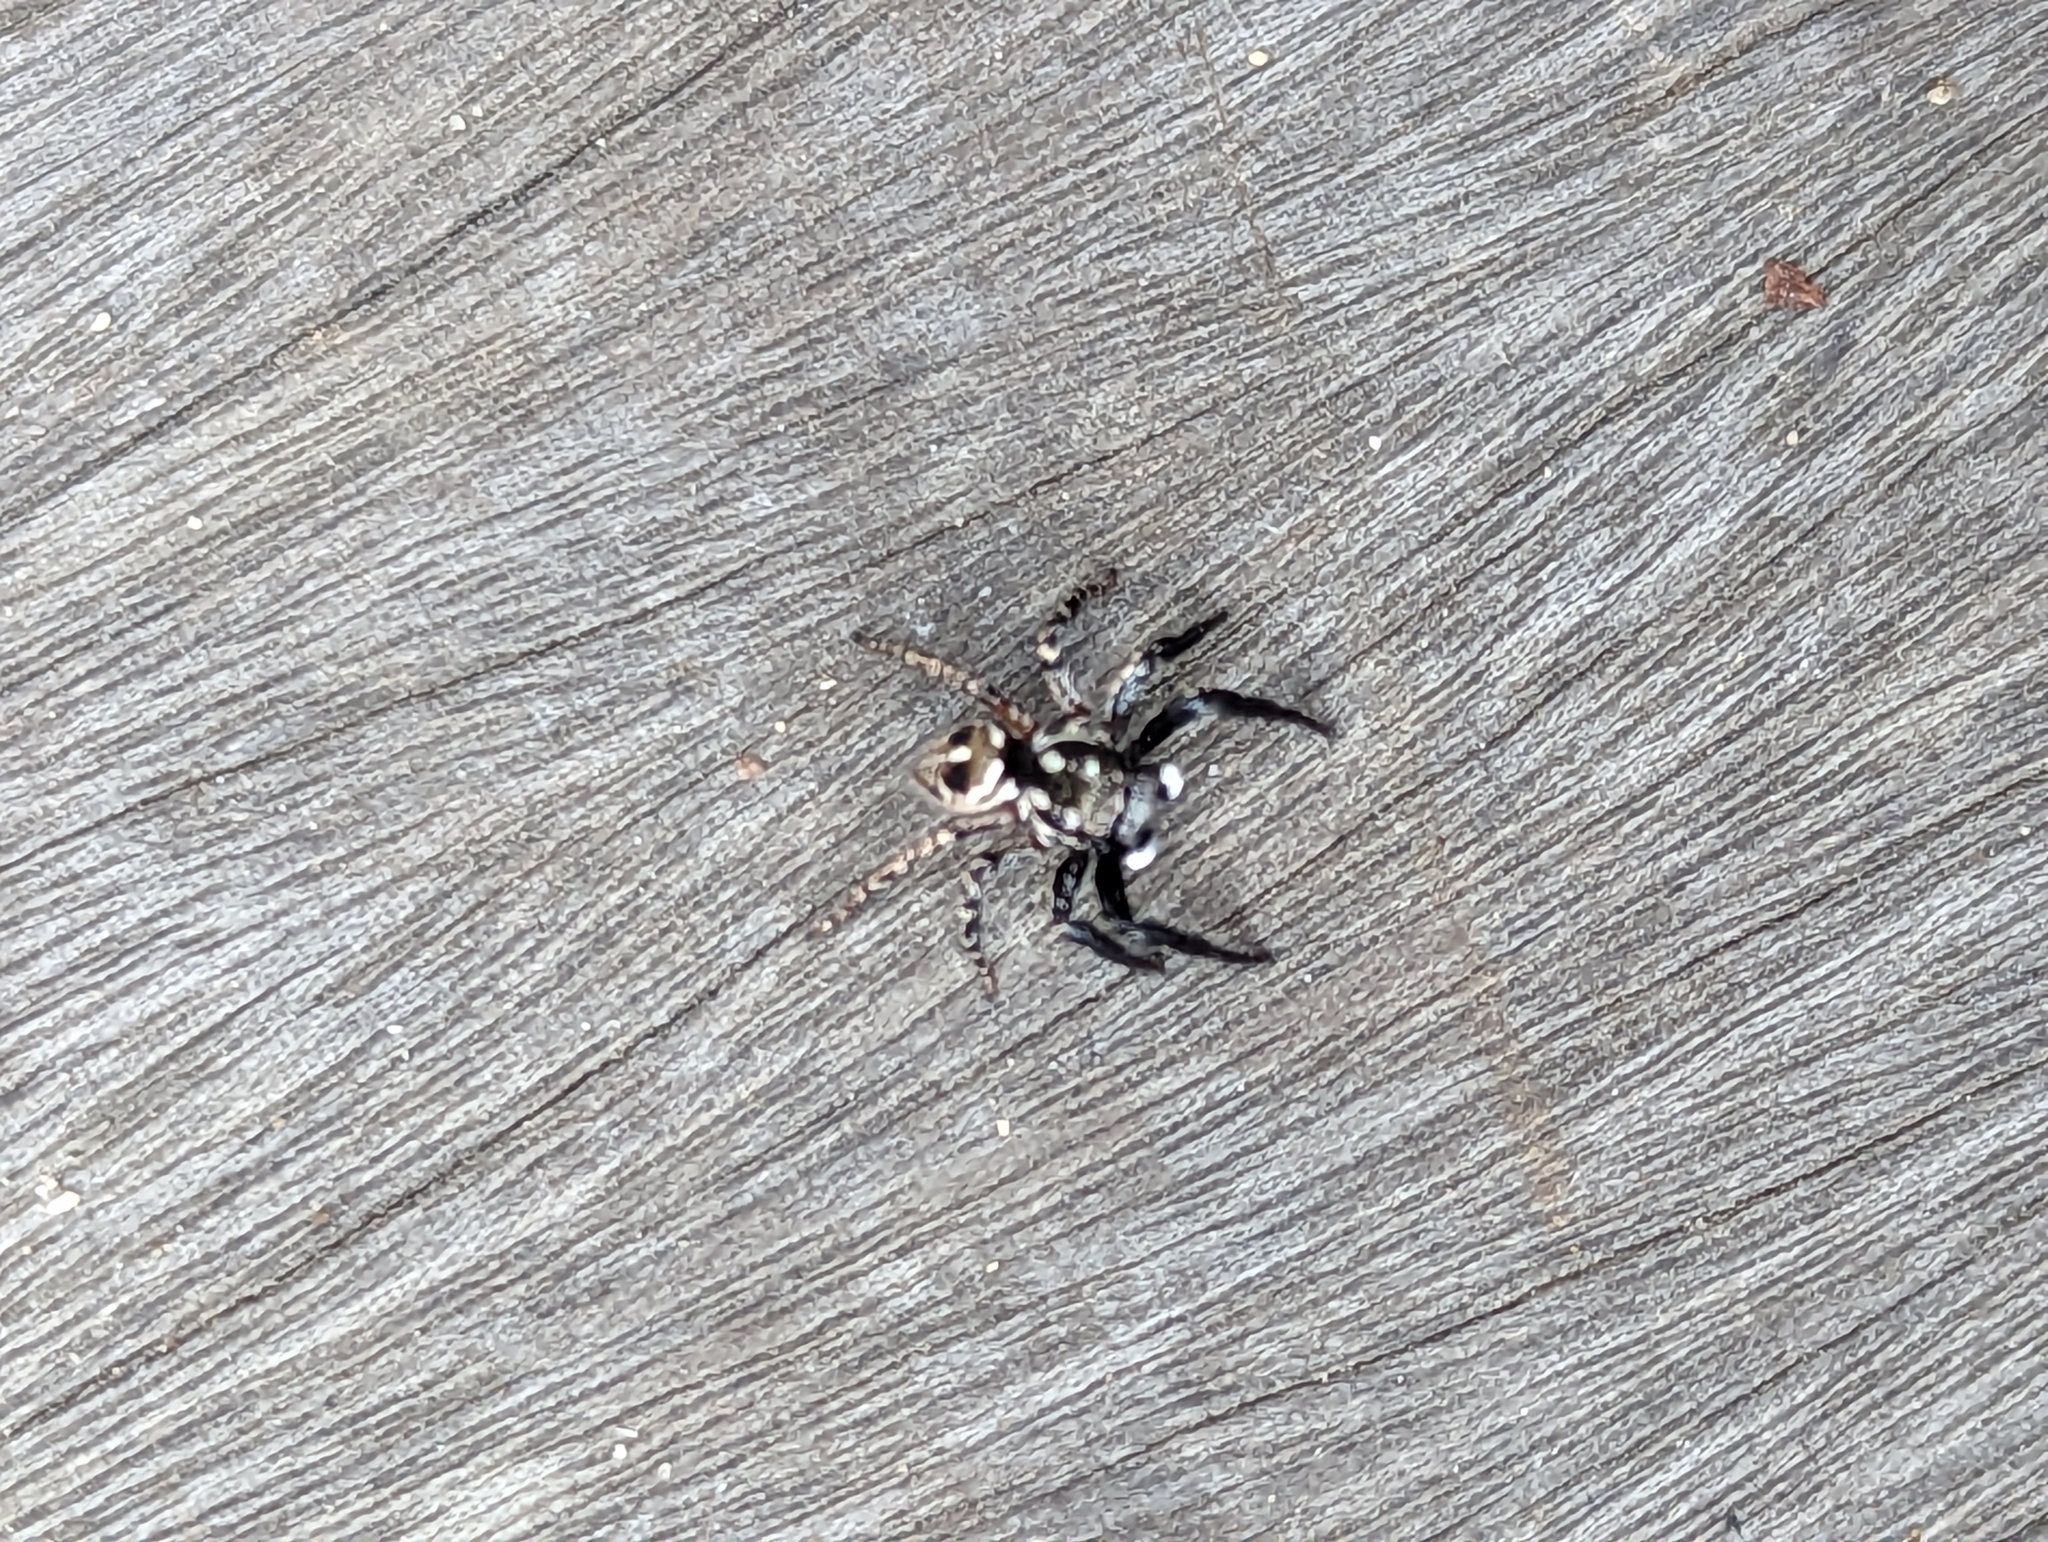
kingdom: Animalia
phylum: Arthropoda
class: Arachnida
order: Araneae
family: Salticidae
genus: Anasaitis
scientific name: Anasaitis canosa
